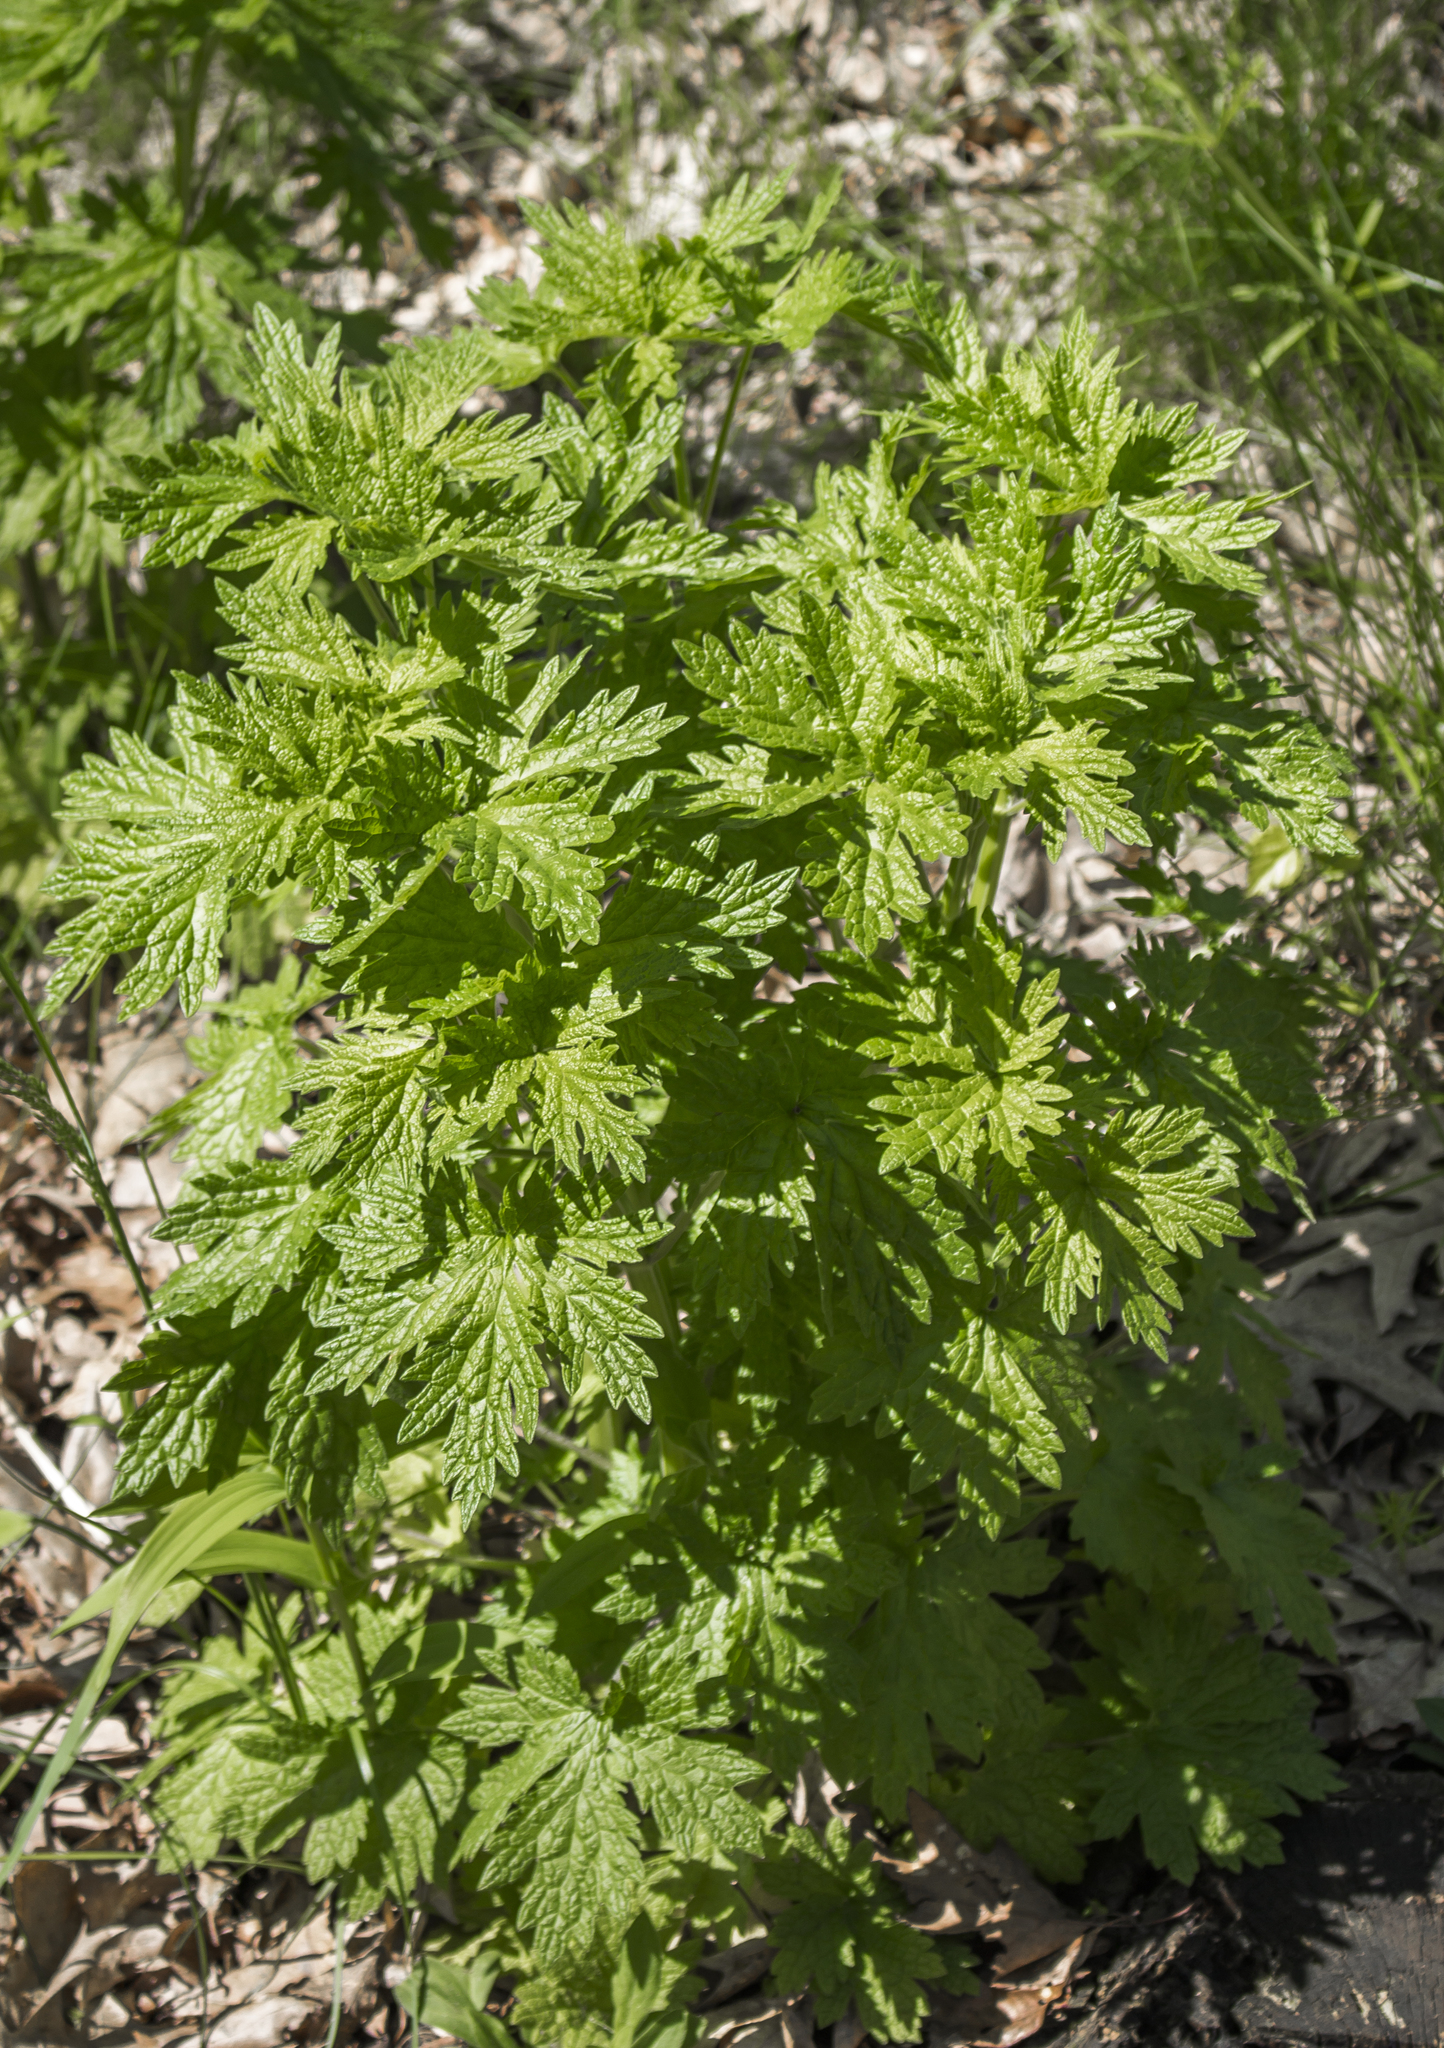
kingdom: Plantae
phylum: Tracheophyta
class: Magnoliopsida
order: Lamiales
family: Lamiaceae
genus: Leonurus
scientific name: Leonurus cardiaca
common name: Motherwort
